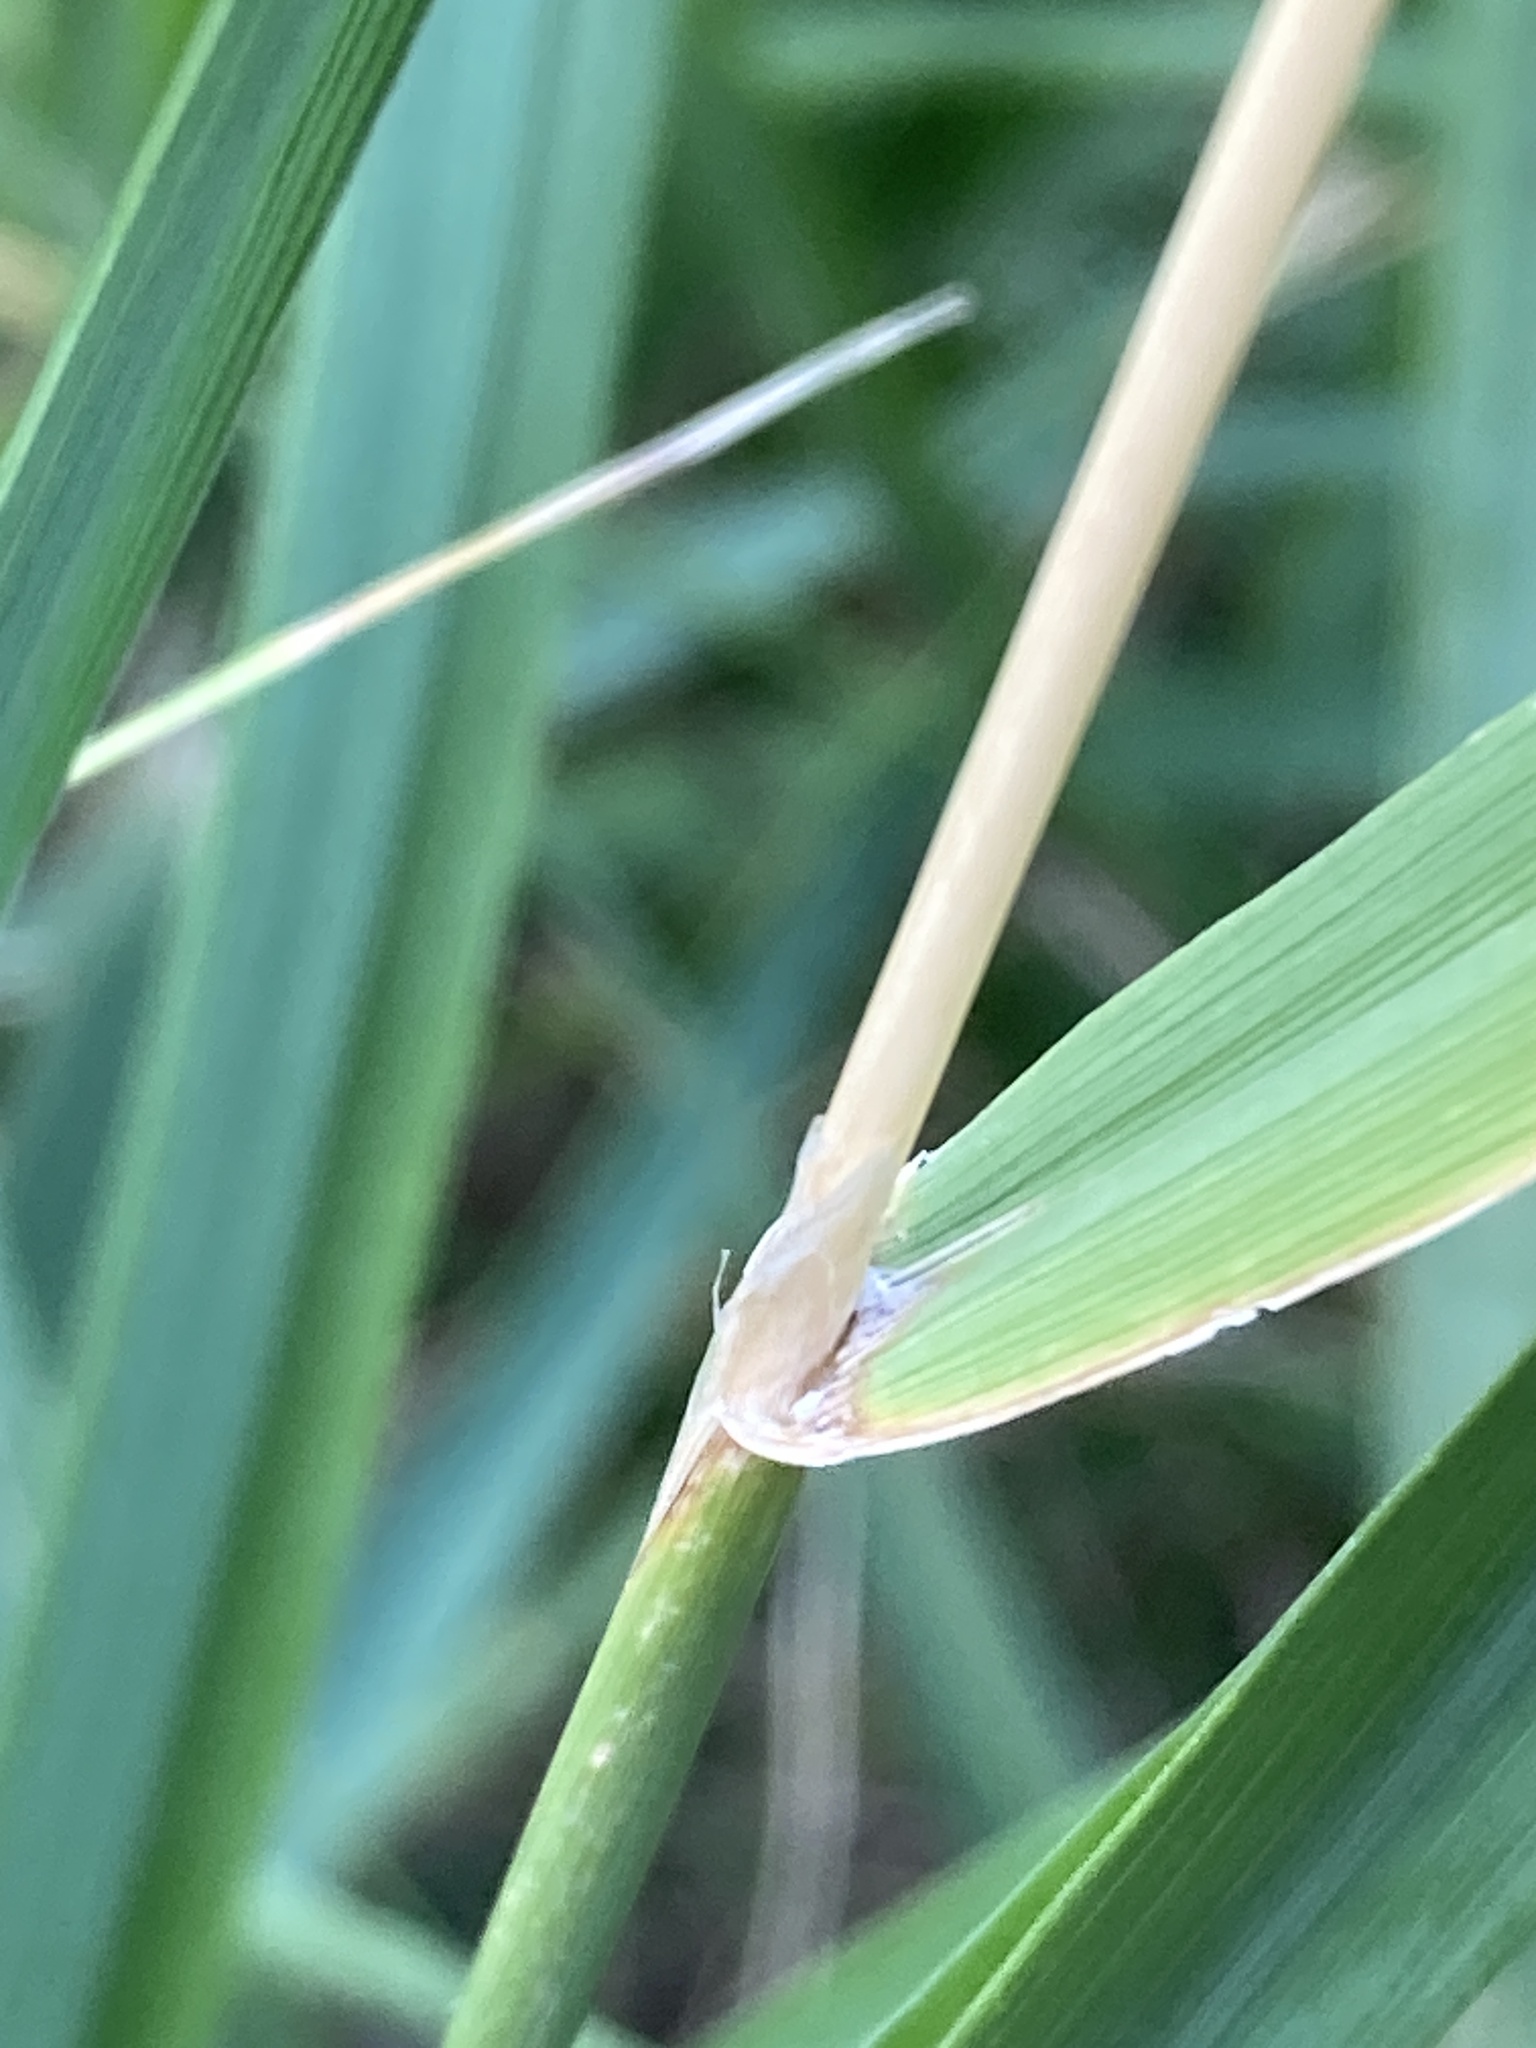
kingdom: Plantae
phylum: Tracheophyta
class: Liliopsida
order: Poales
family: Poaceae
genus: Calamagrostis
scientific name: Calamagrostis epigejos
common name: Wood small-reed
